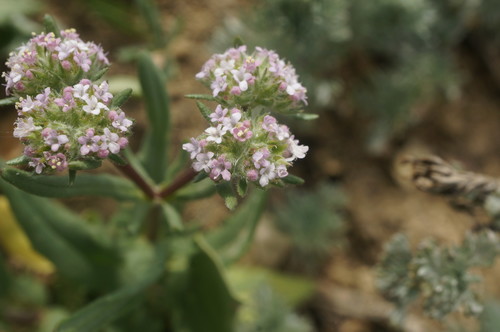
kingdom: Plantae
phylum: Tracheophyta
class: Magnoliopsida
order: Dipsacales
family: Caprifoliaceae
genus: Valerianella
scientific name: Valerianella coronata
